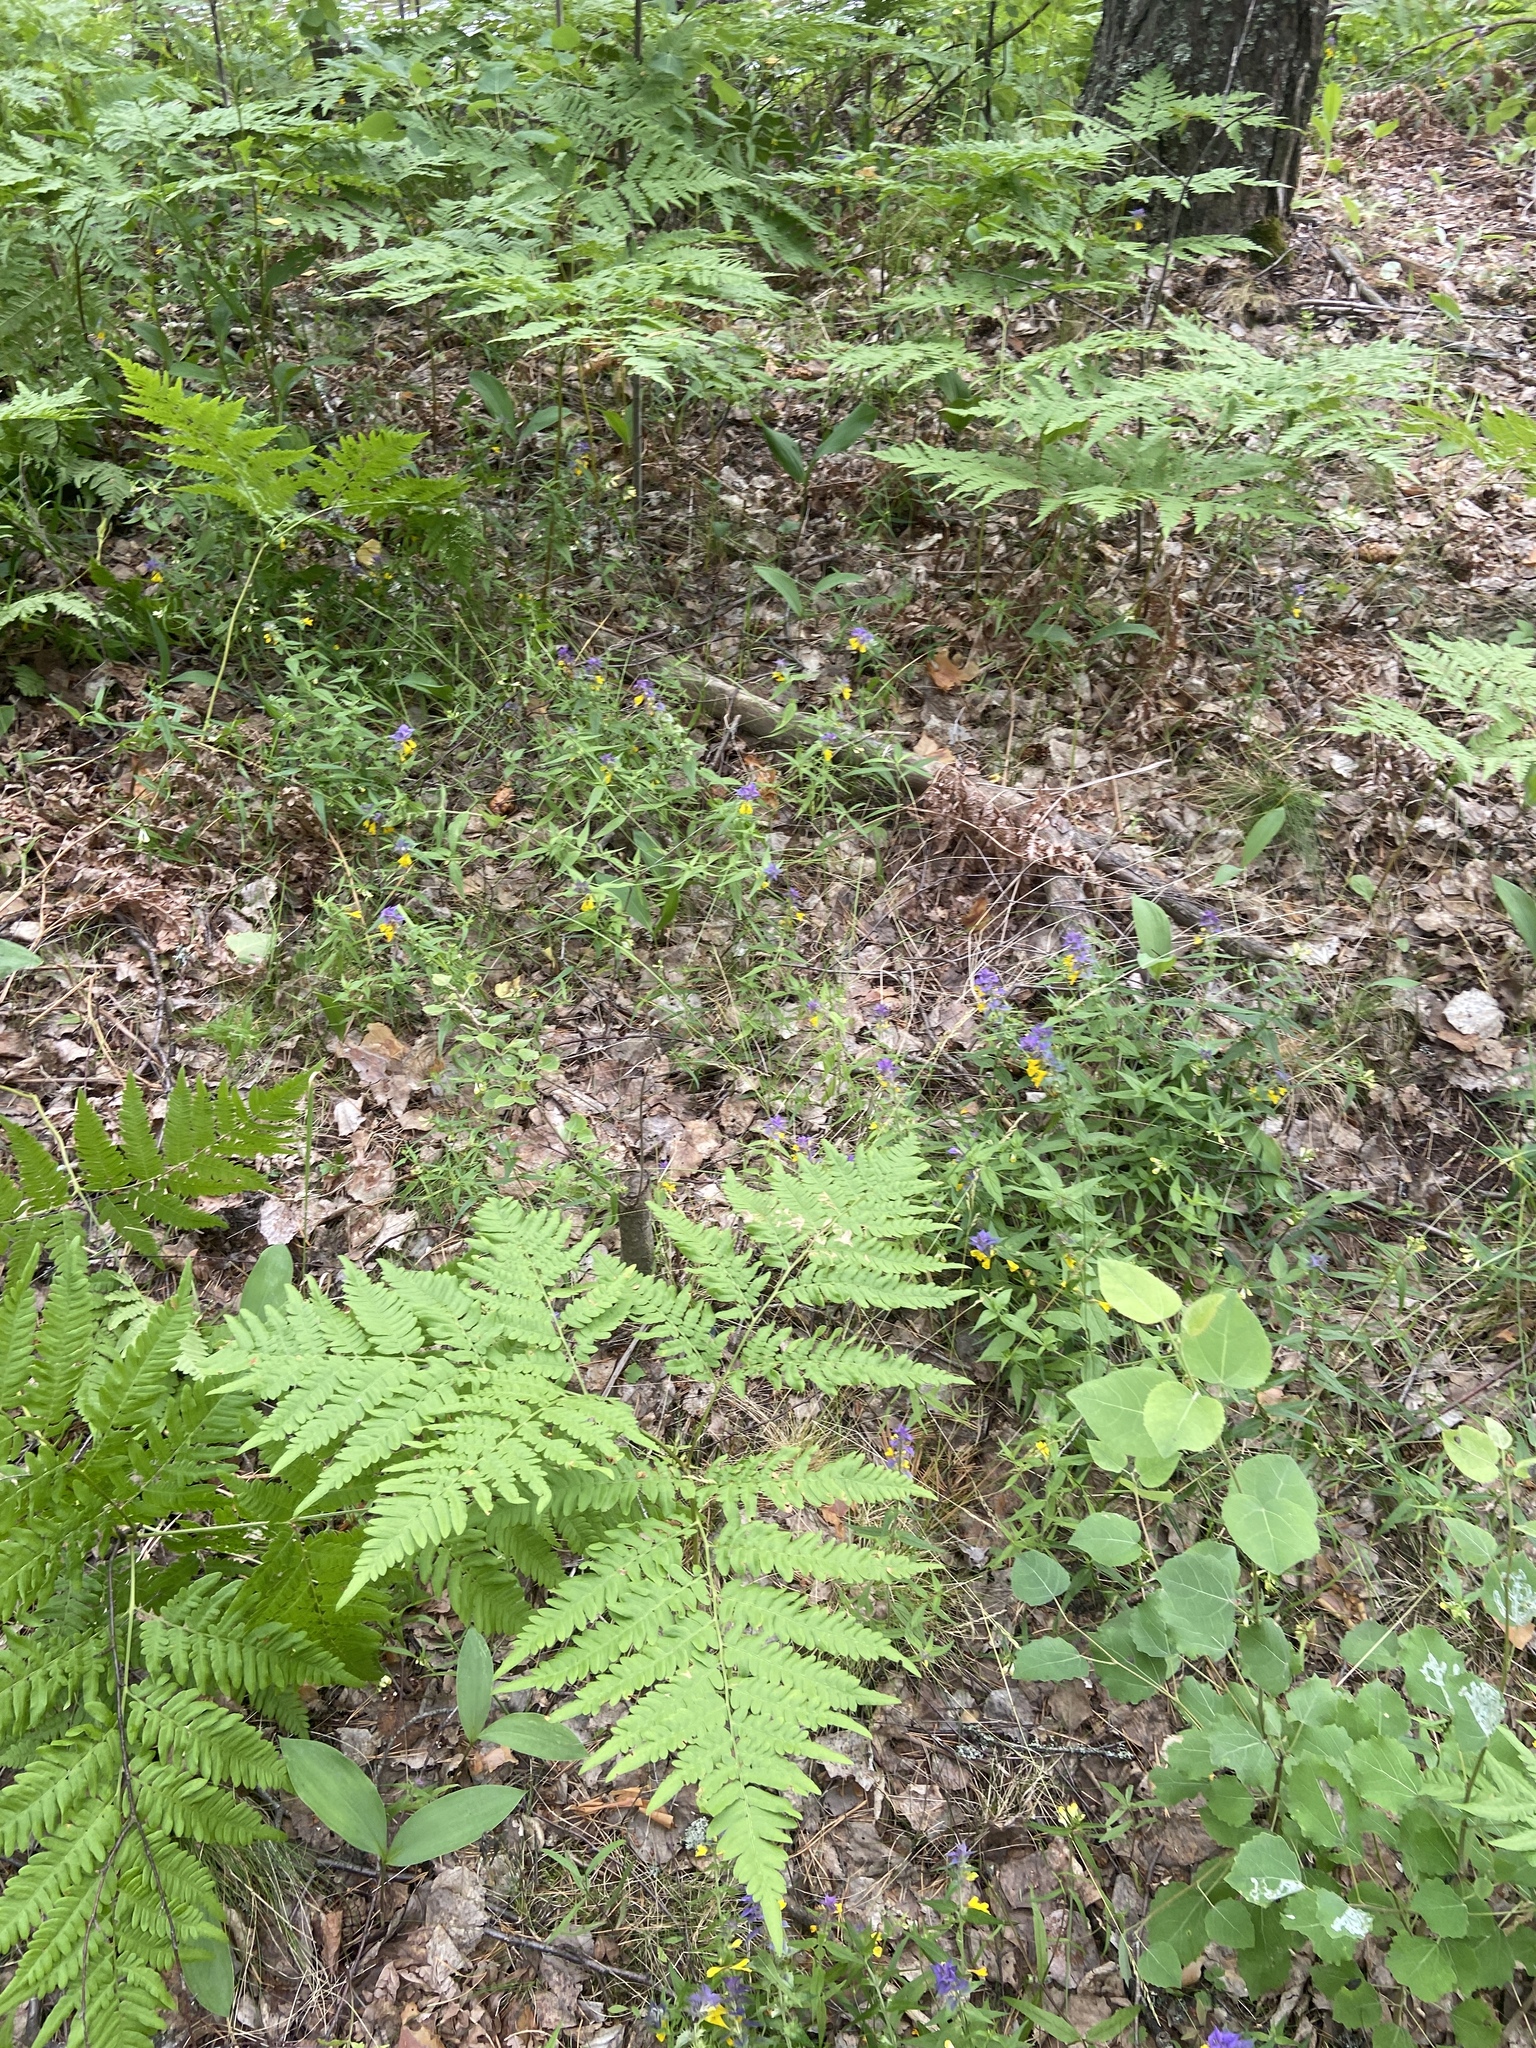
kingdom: Plantae
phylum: Tracheophyta
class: Polypodiopsida
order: Polypodiales
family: Dennstaedtiaceae
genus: Pteridium
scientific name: Pteridium aquilinum
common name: Bracken
